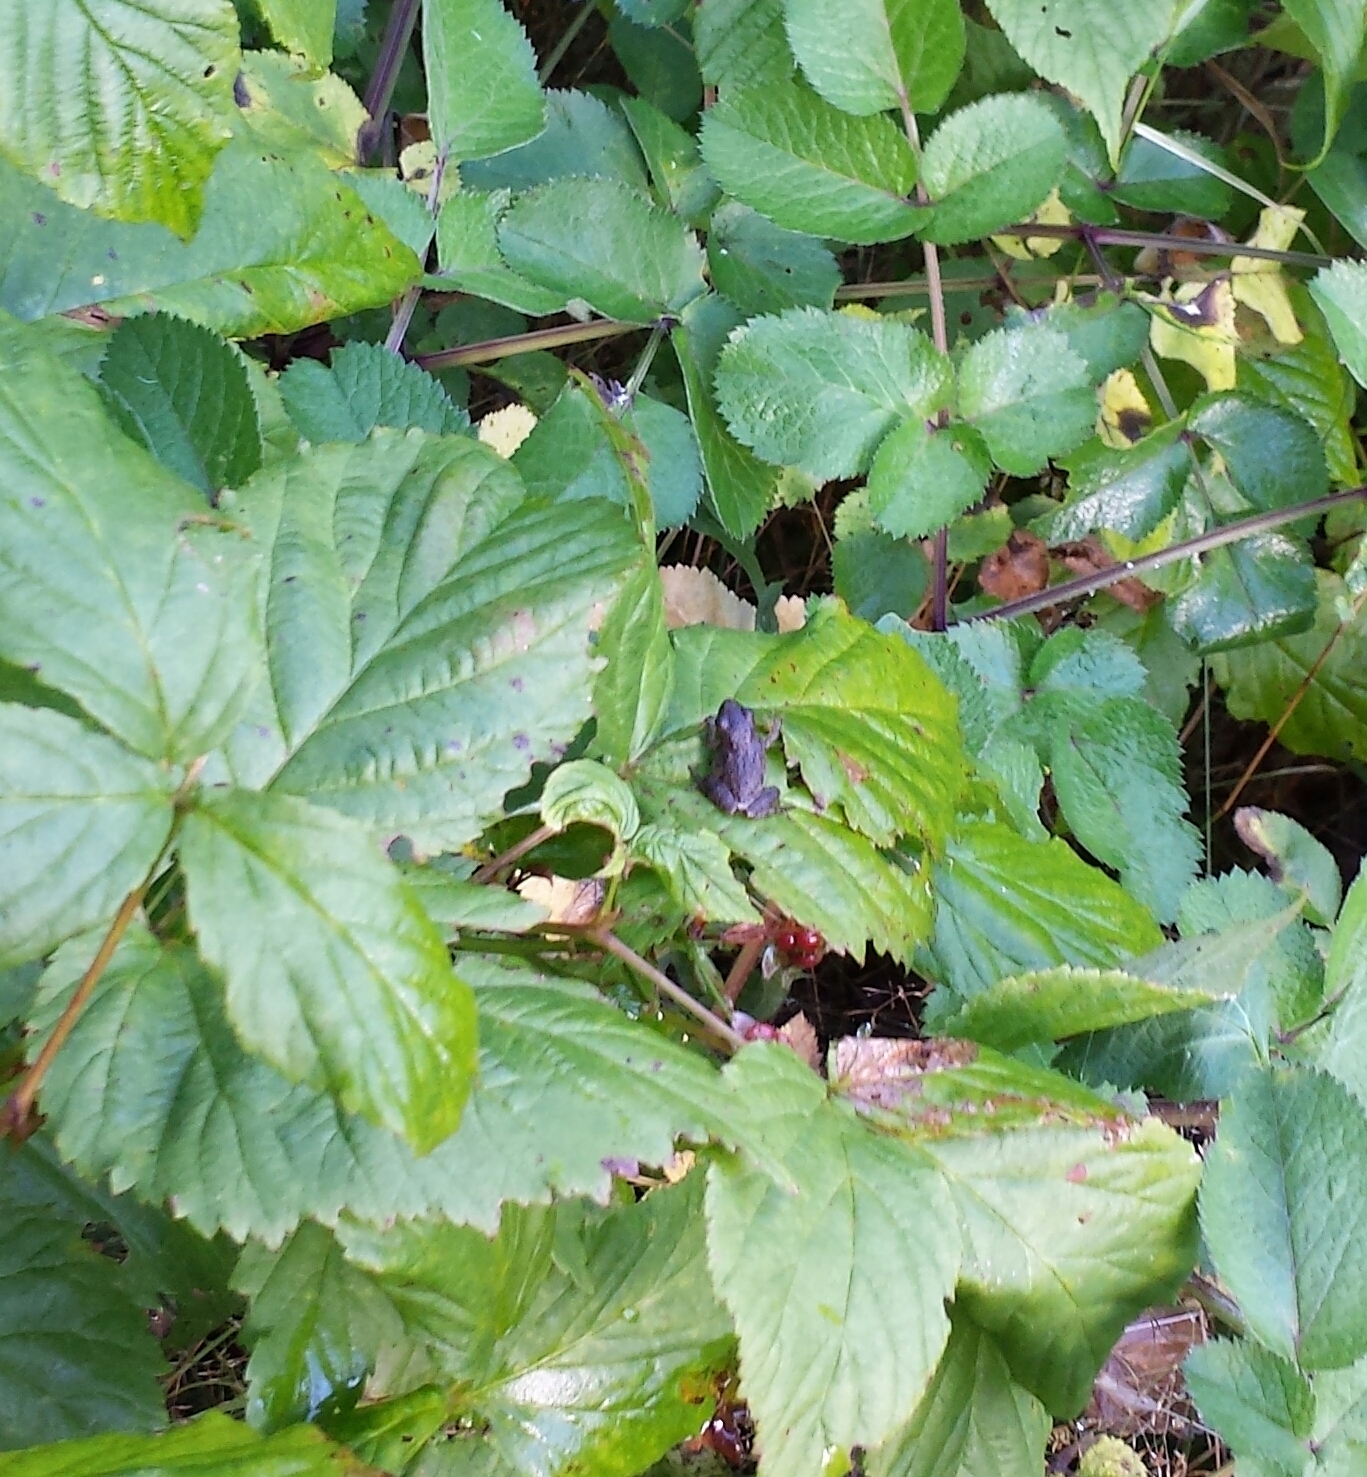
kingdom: Animalia
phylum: Chordata
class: Amphibia
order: Anura
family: Hylidae
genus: Pseudacris
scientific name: Pseudacris crucifer
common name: Spring peeper
